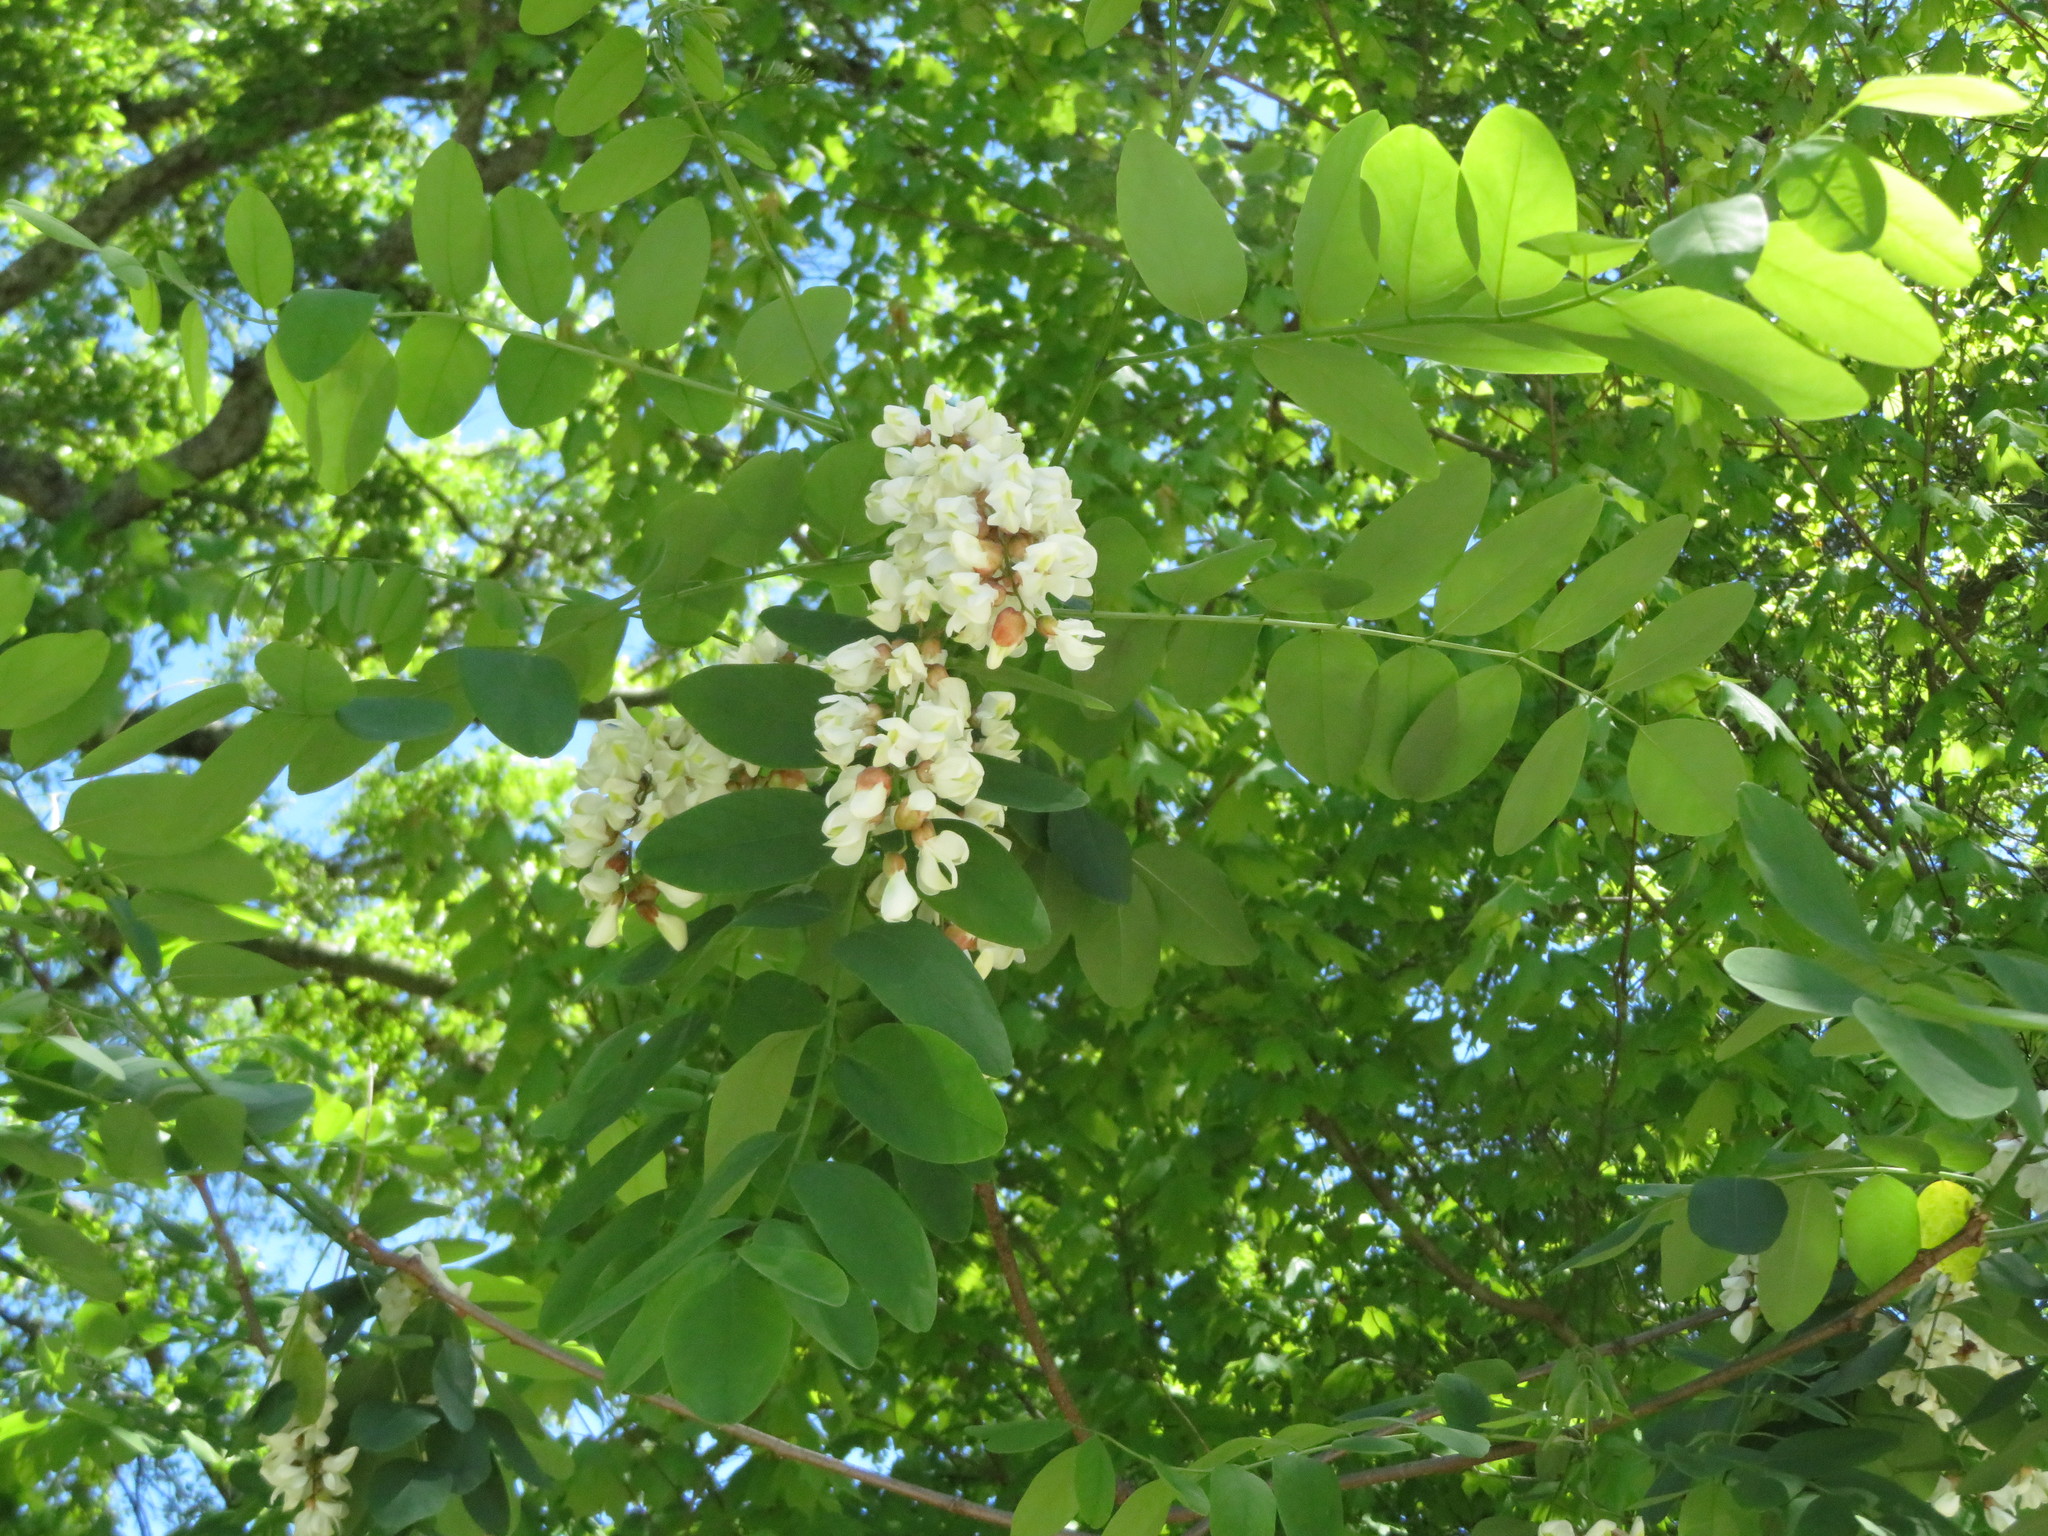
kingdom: Plantae
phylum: Tracheophyta
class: Magnoliopsida
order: Fabales
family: Fabaceae
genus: Robinia
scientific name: Robinia pseudoacacia
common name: Black locust
